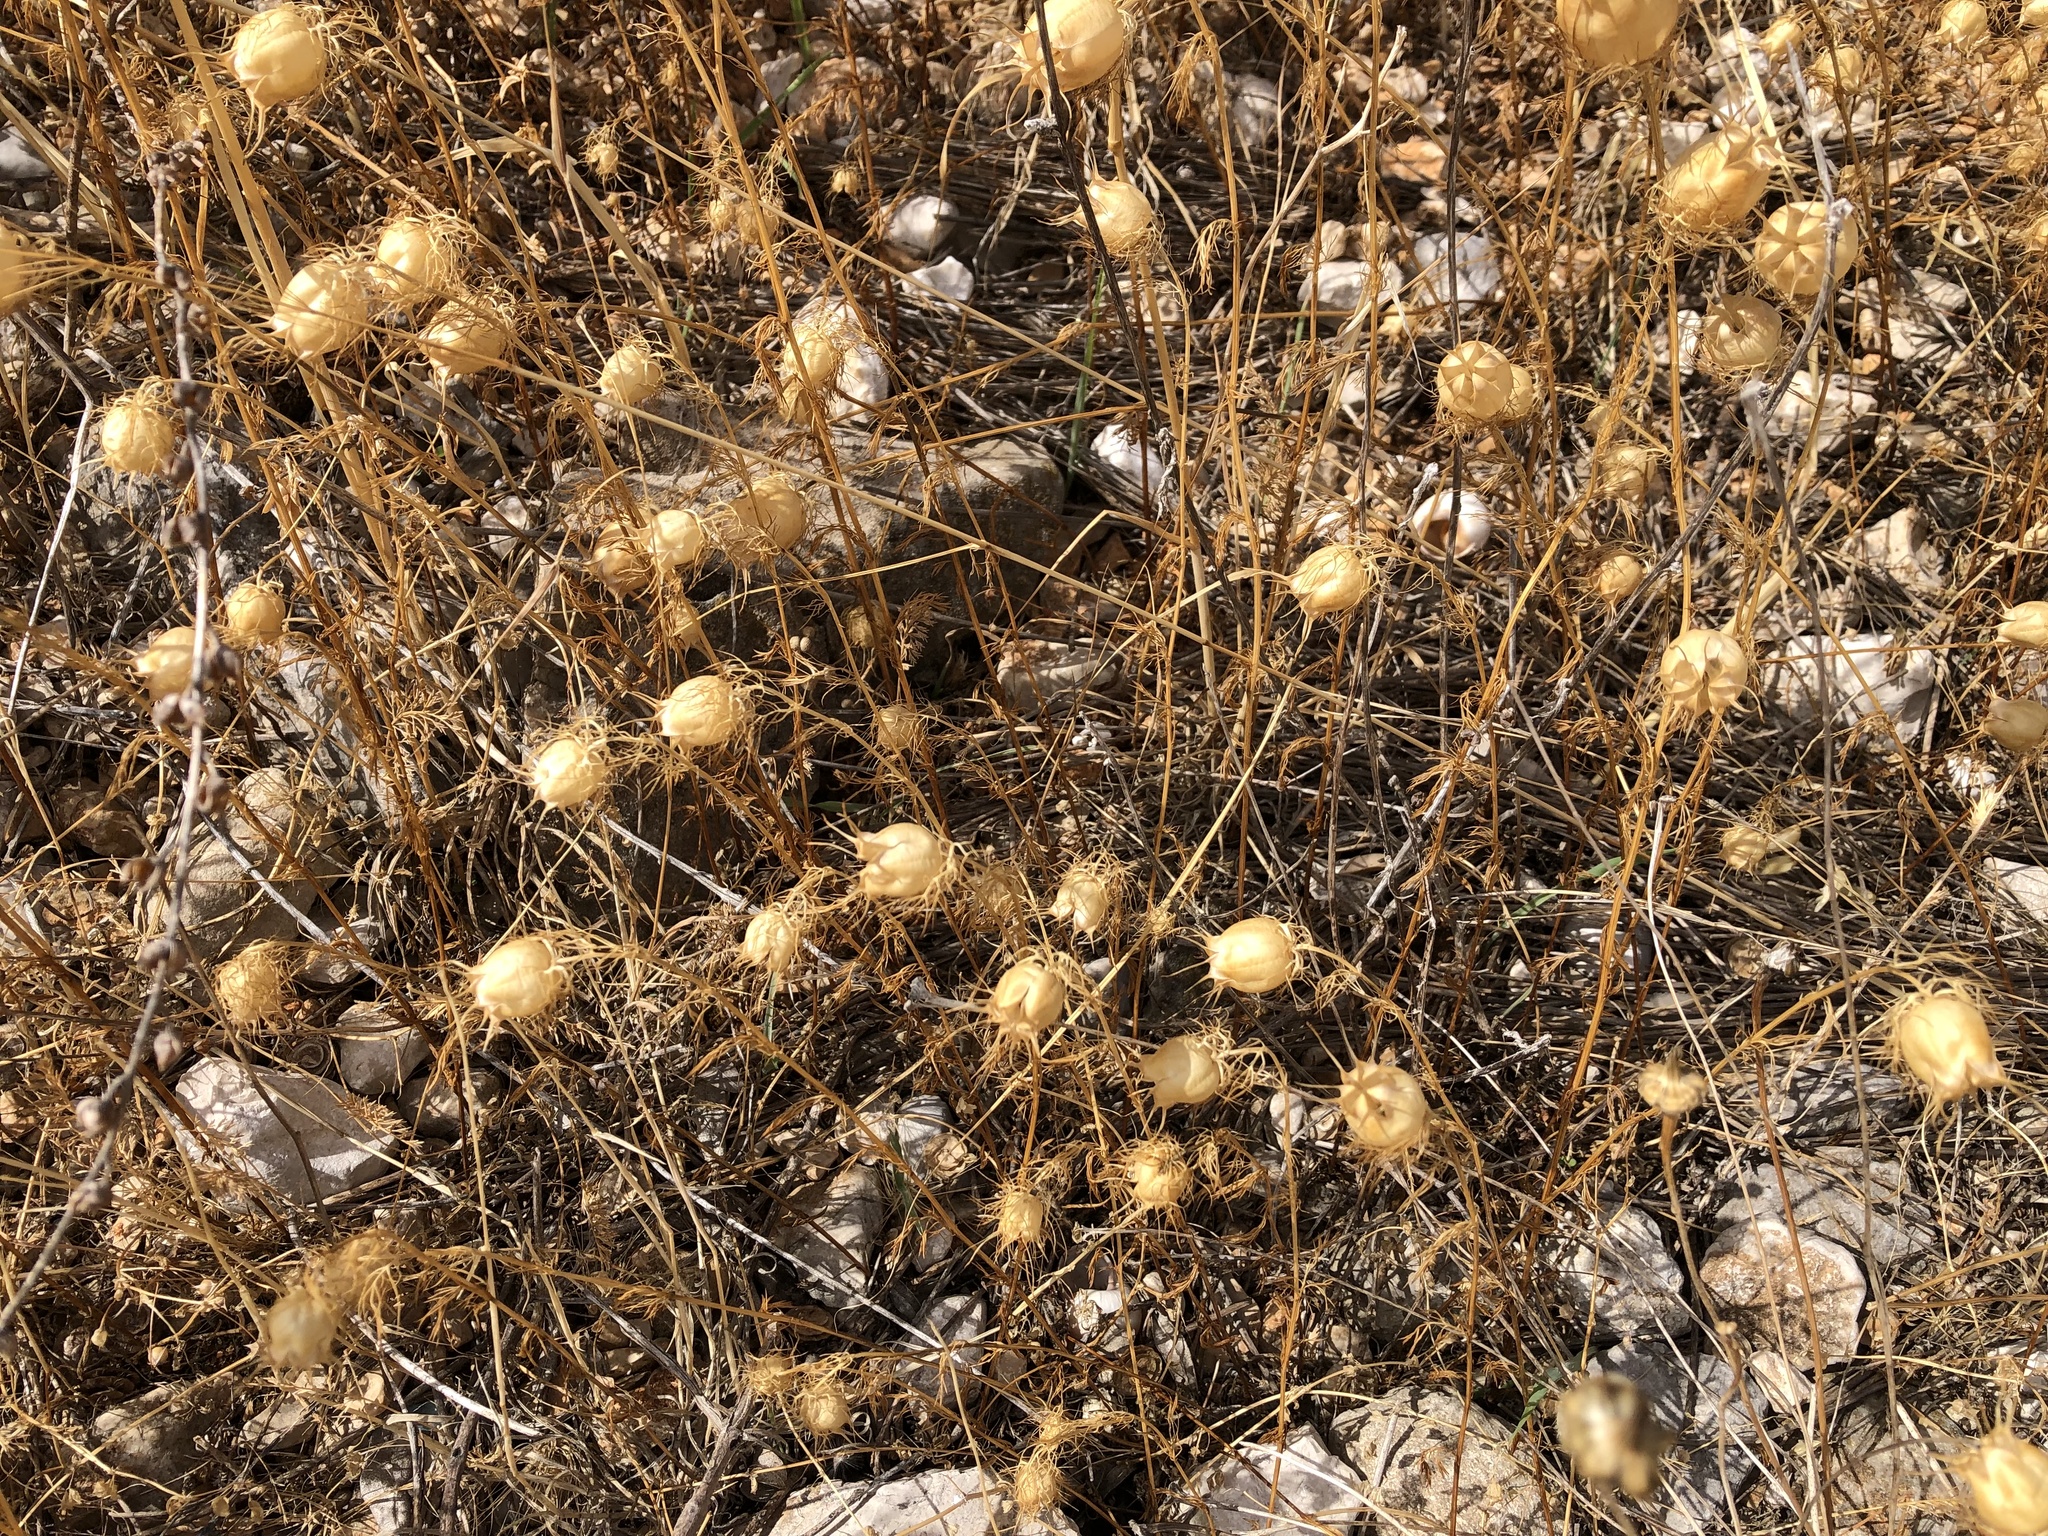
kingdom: Plantae
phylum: Tracheophyta
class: Magnoliopsida
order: Ranunculales
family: Ranunculaceae
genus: Nigella
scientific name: Nigella damascena
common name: Love-in-a-mist
